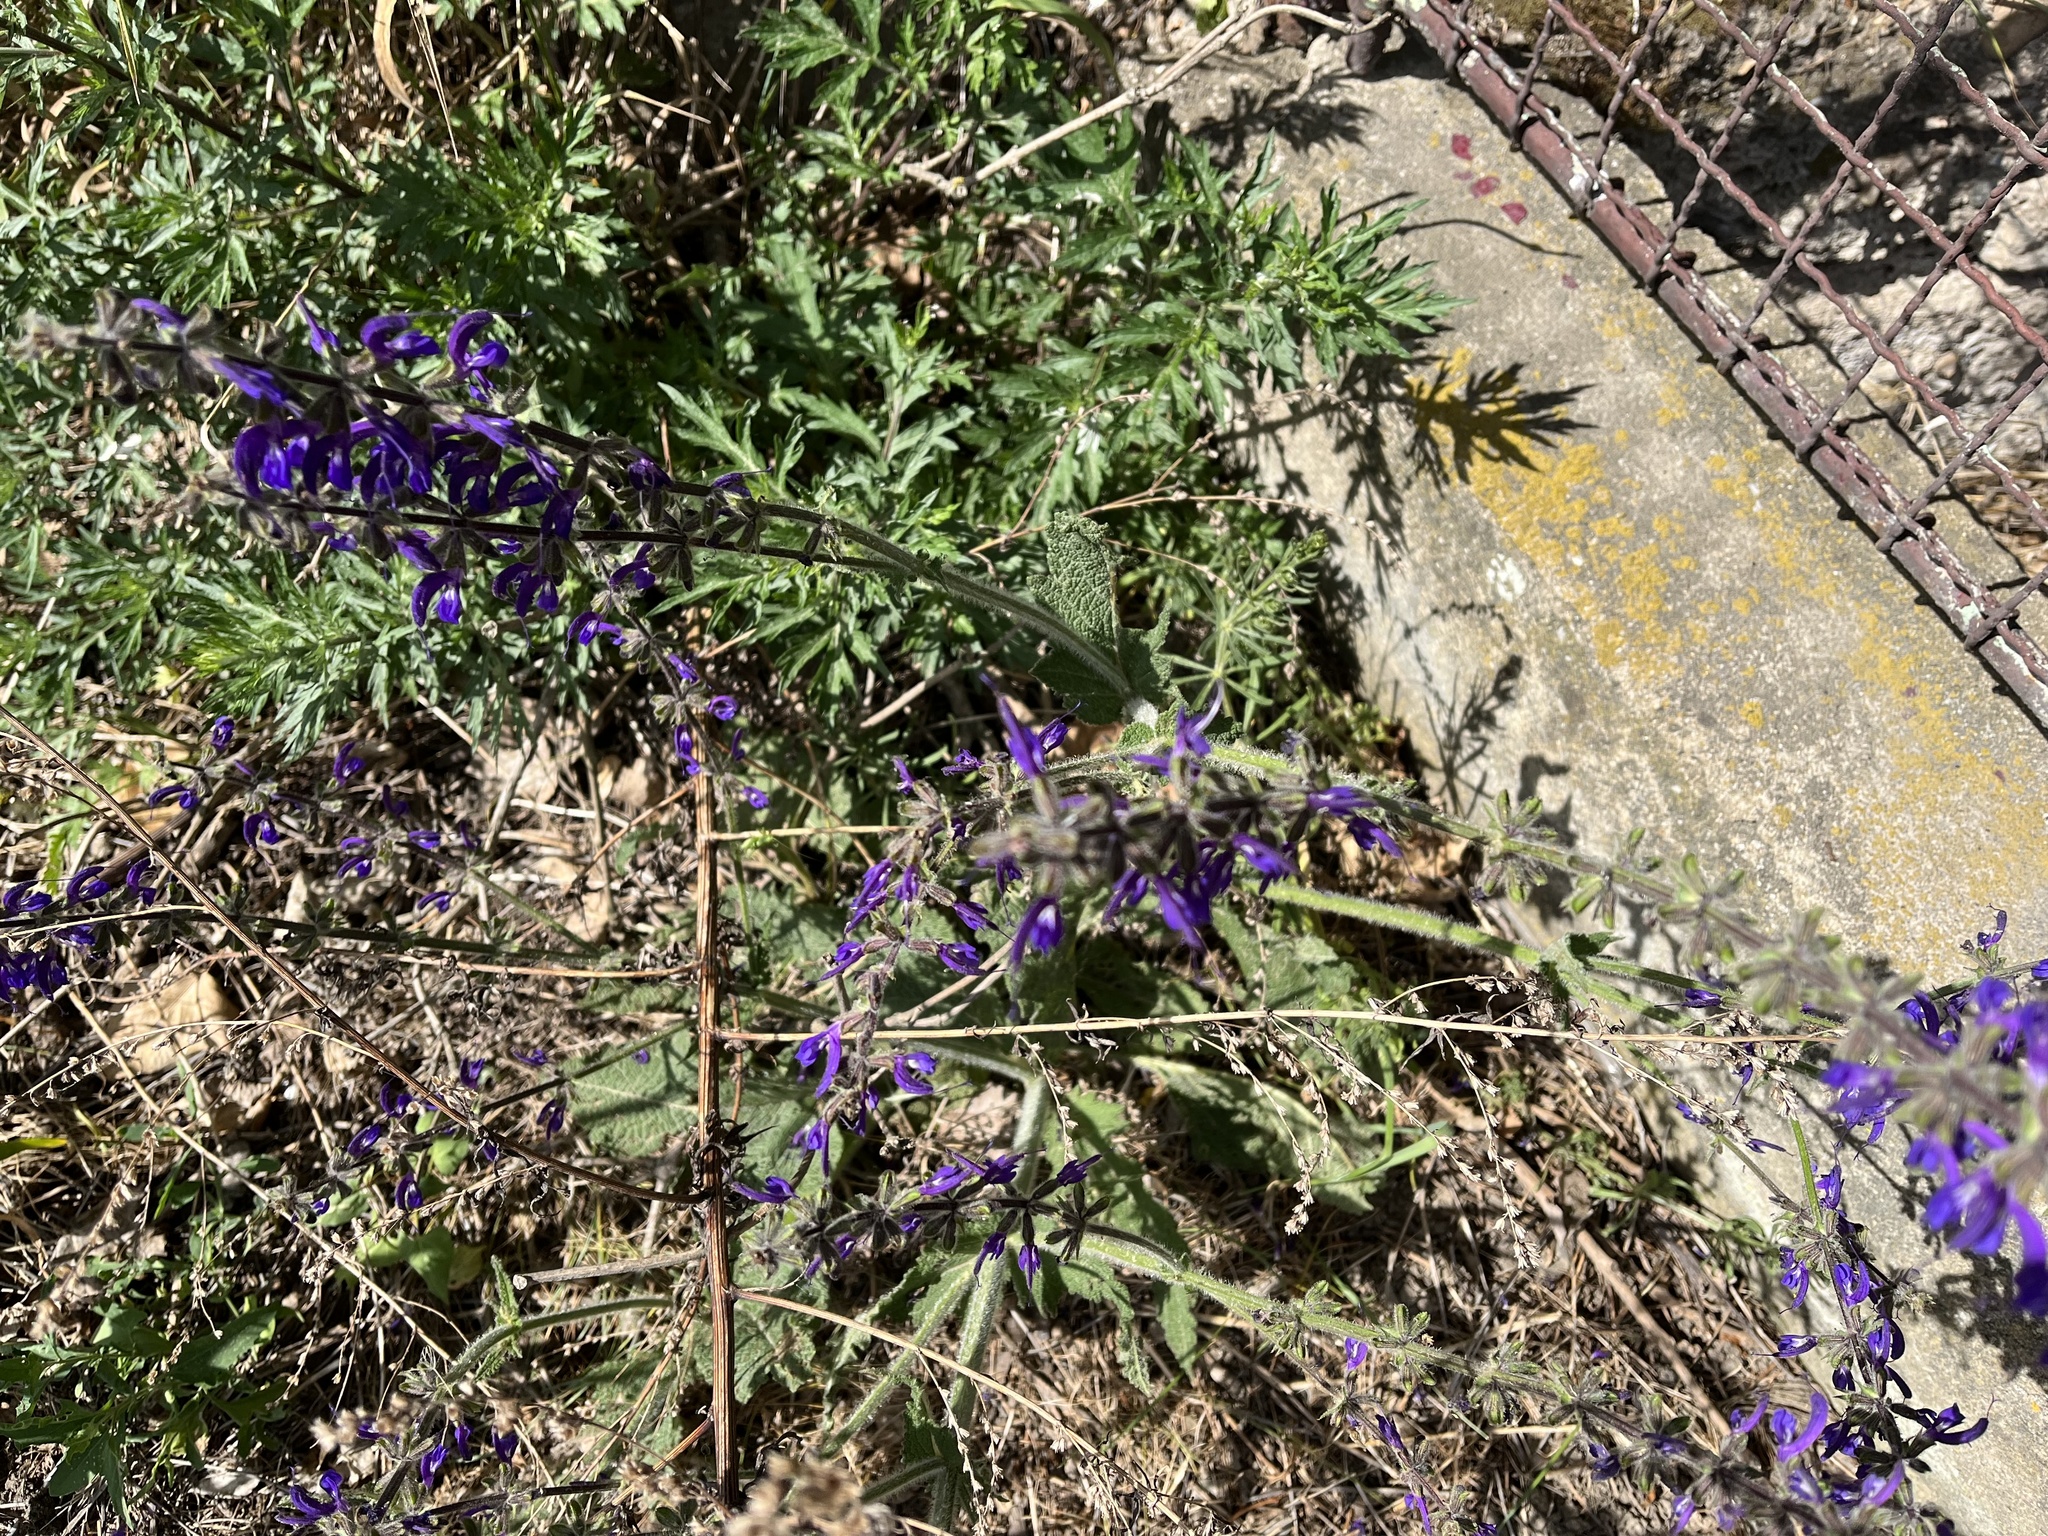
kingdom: Plantae
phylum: Tracheophyta
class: Magnoliopsida
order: Lamiales
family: Lamiaceae
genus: Salvia
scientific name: Salvia pratensis
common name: Meadow sage
